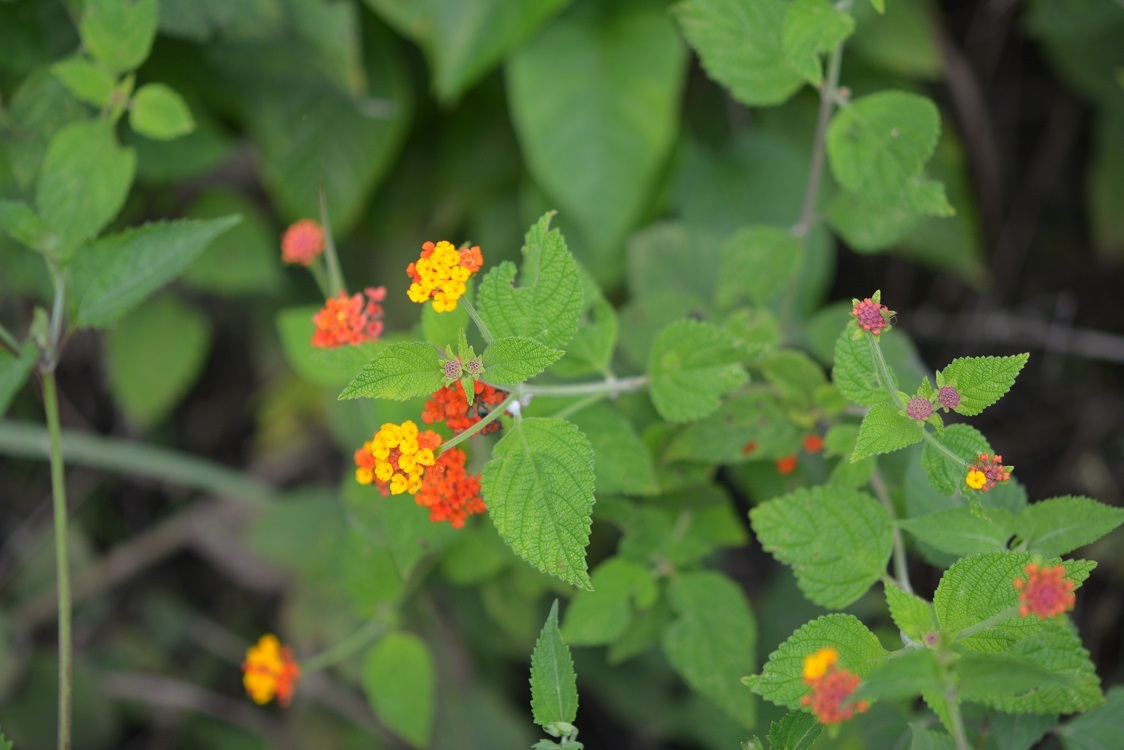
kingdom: Plantae
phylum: Tracheophyta
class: Magnoliopsida
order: Lamiales
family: Verbenaceae
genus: Lantana
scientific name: Lantana camara
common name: Lantana
